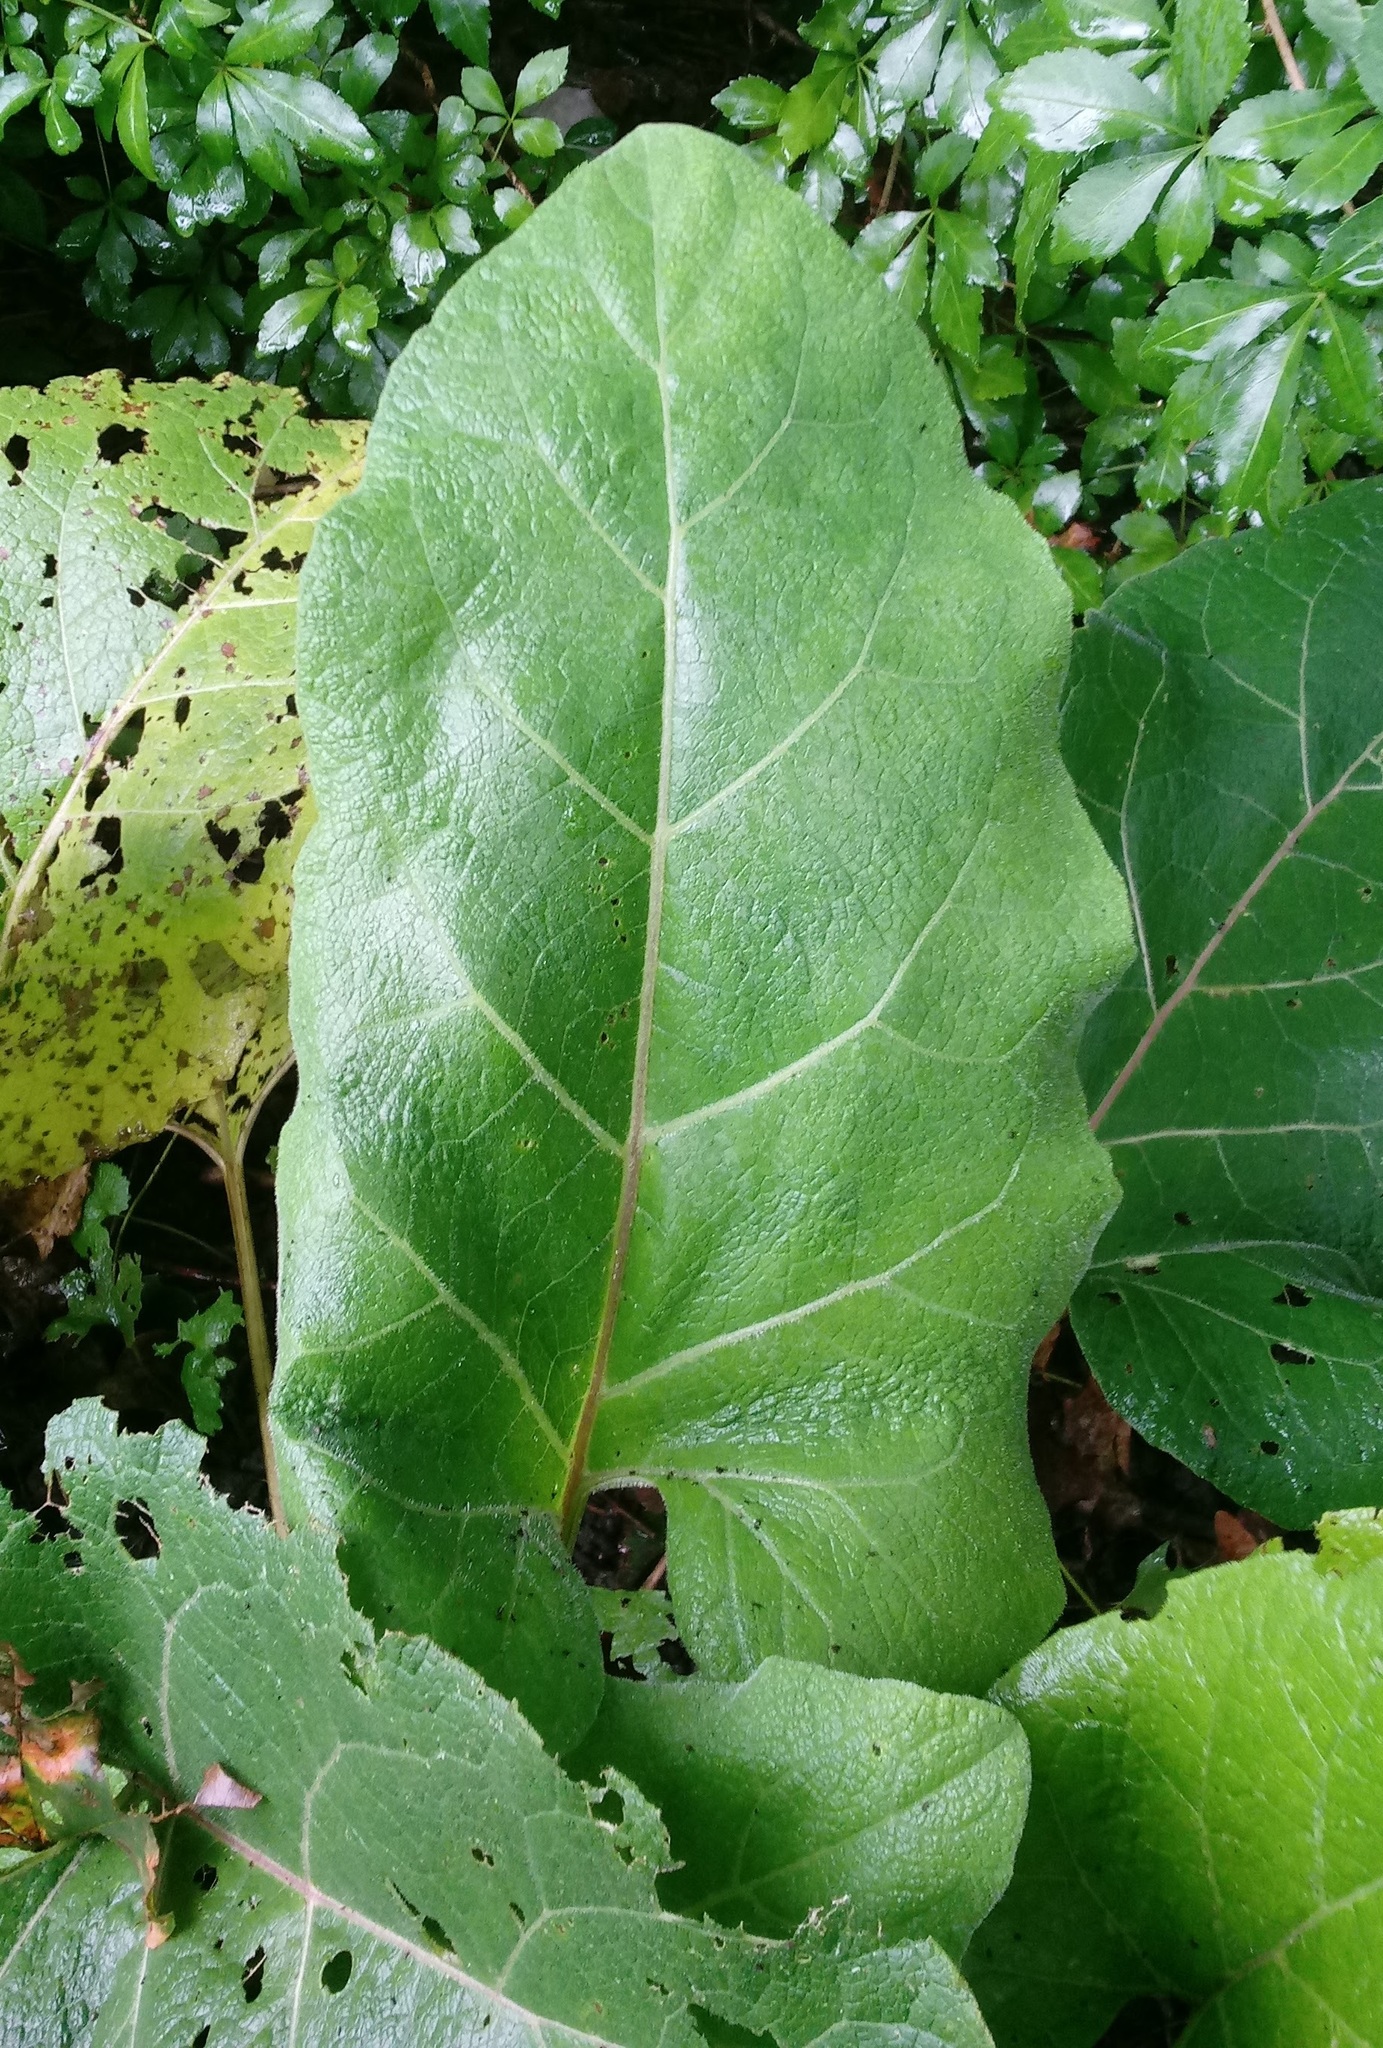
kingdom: Plantae
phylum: Tracheophyta
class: Magnoliopsida
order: Asterales
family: Asteraceae
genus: Arctium
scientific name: Arctium
